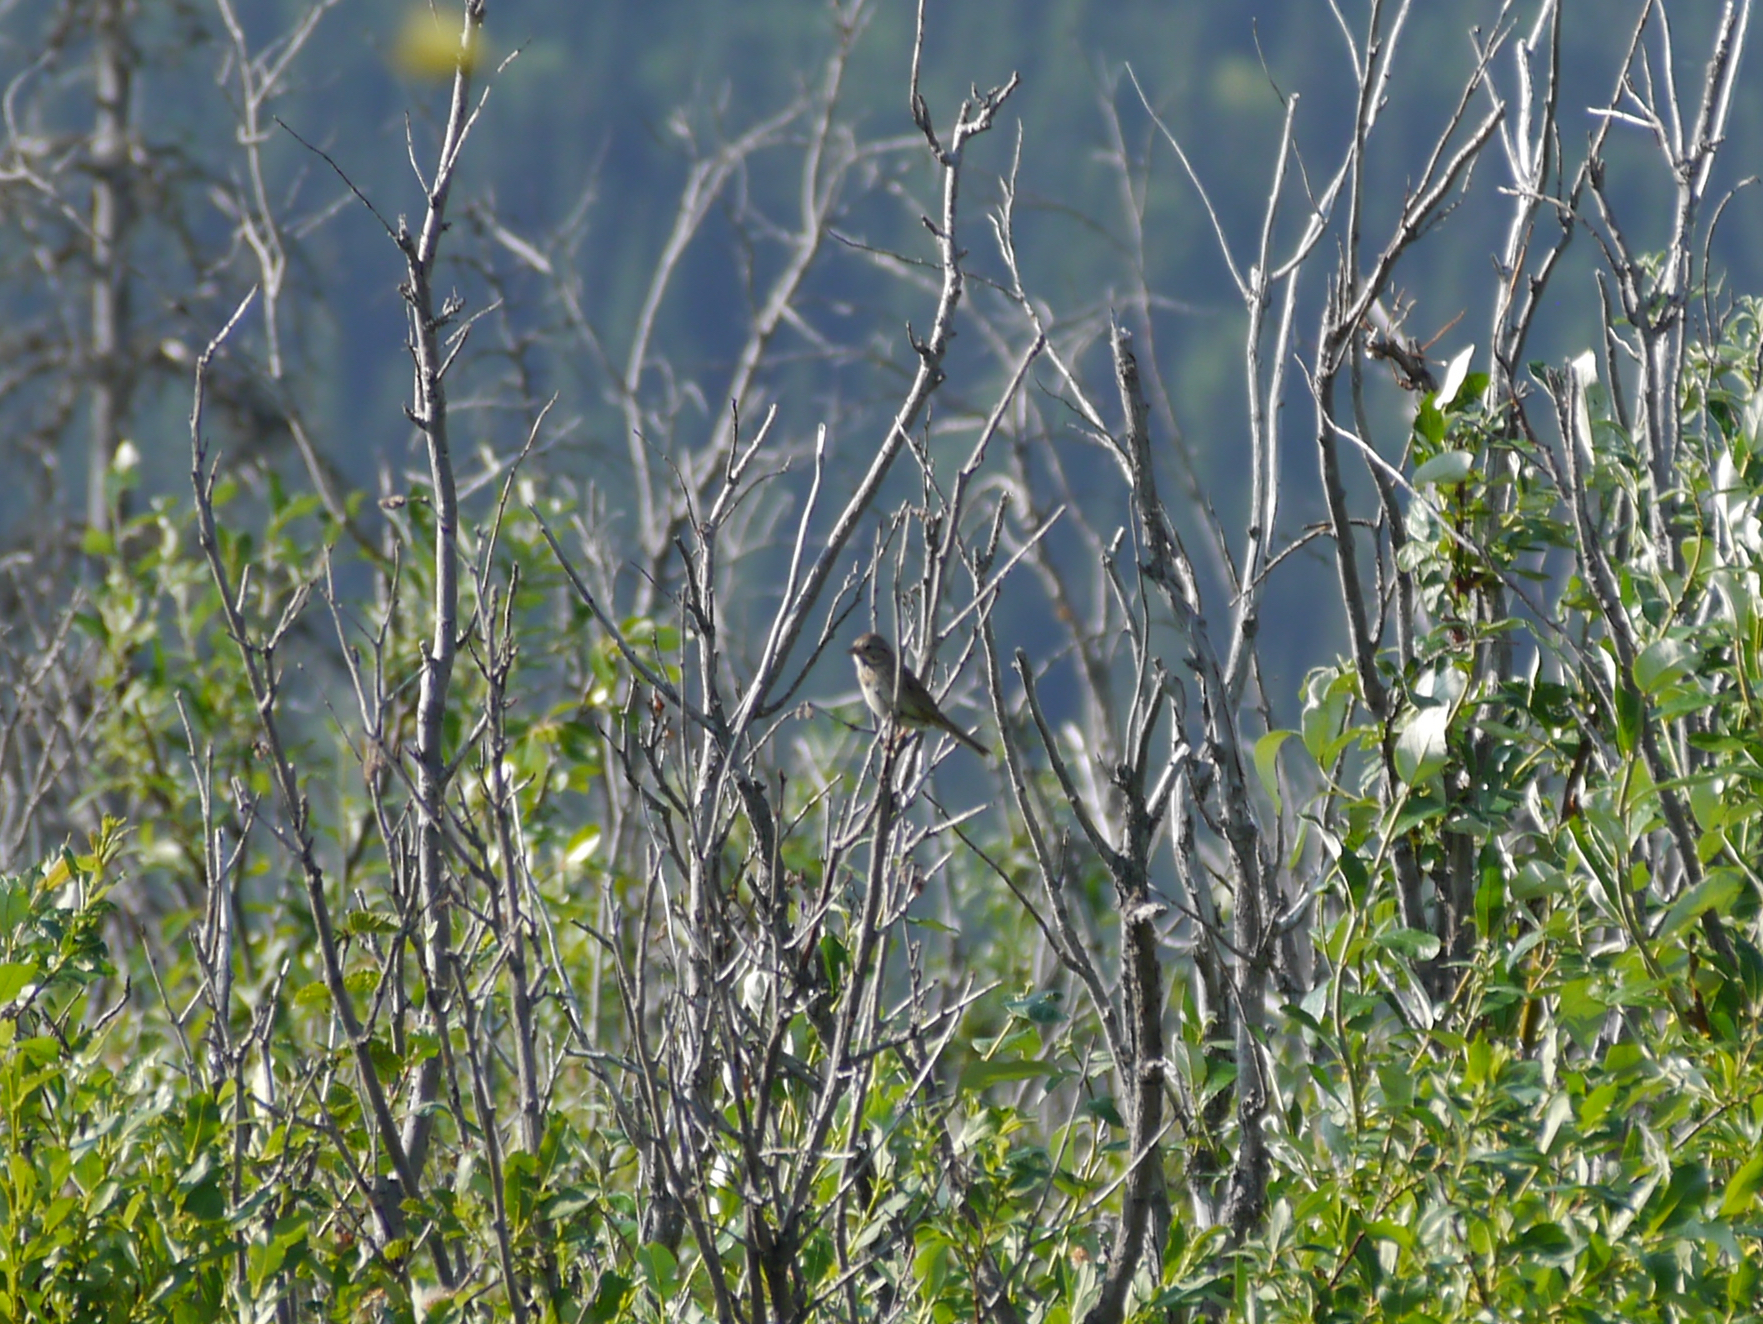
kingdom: Animalia
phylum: Chordata
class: Aves
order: Passeriformes
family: Passerellidae
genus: Melospiza
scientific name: Melospiza lincolnii
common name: Lincoln's sparrow
